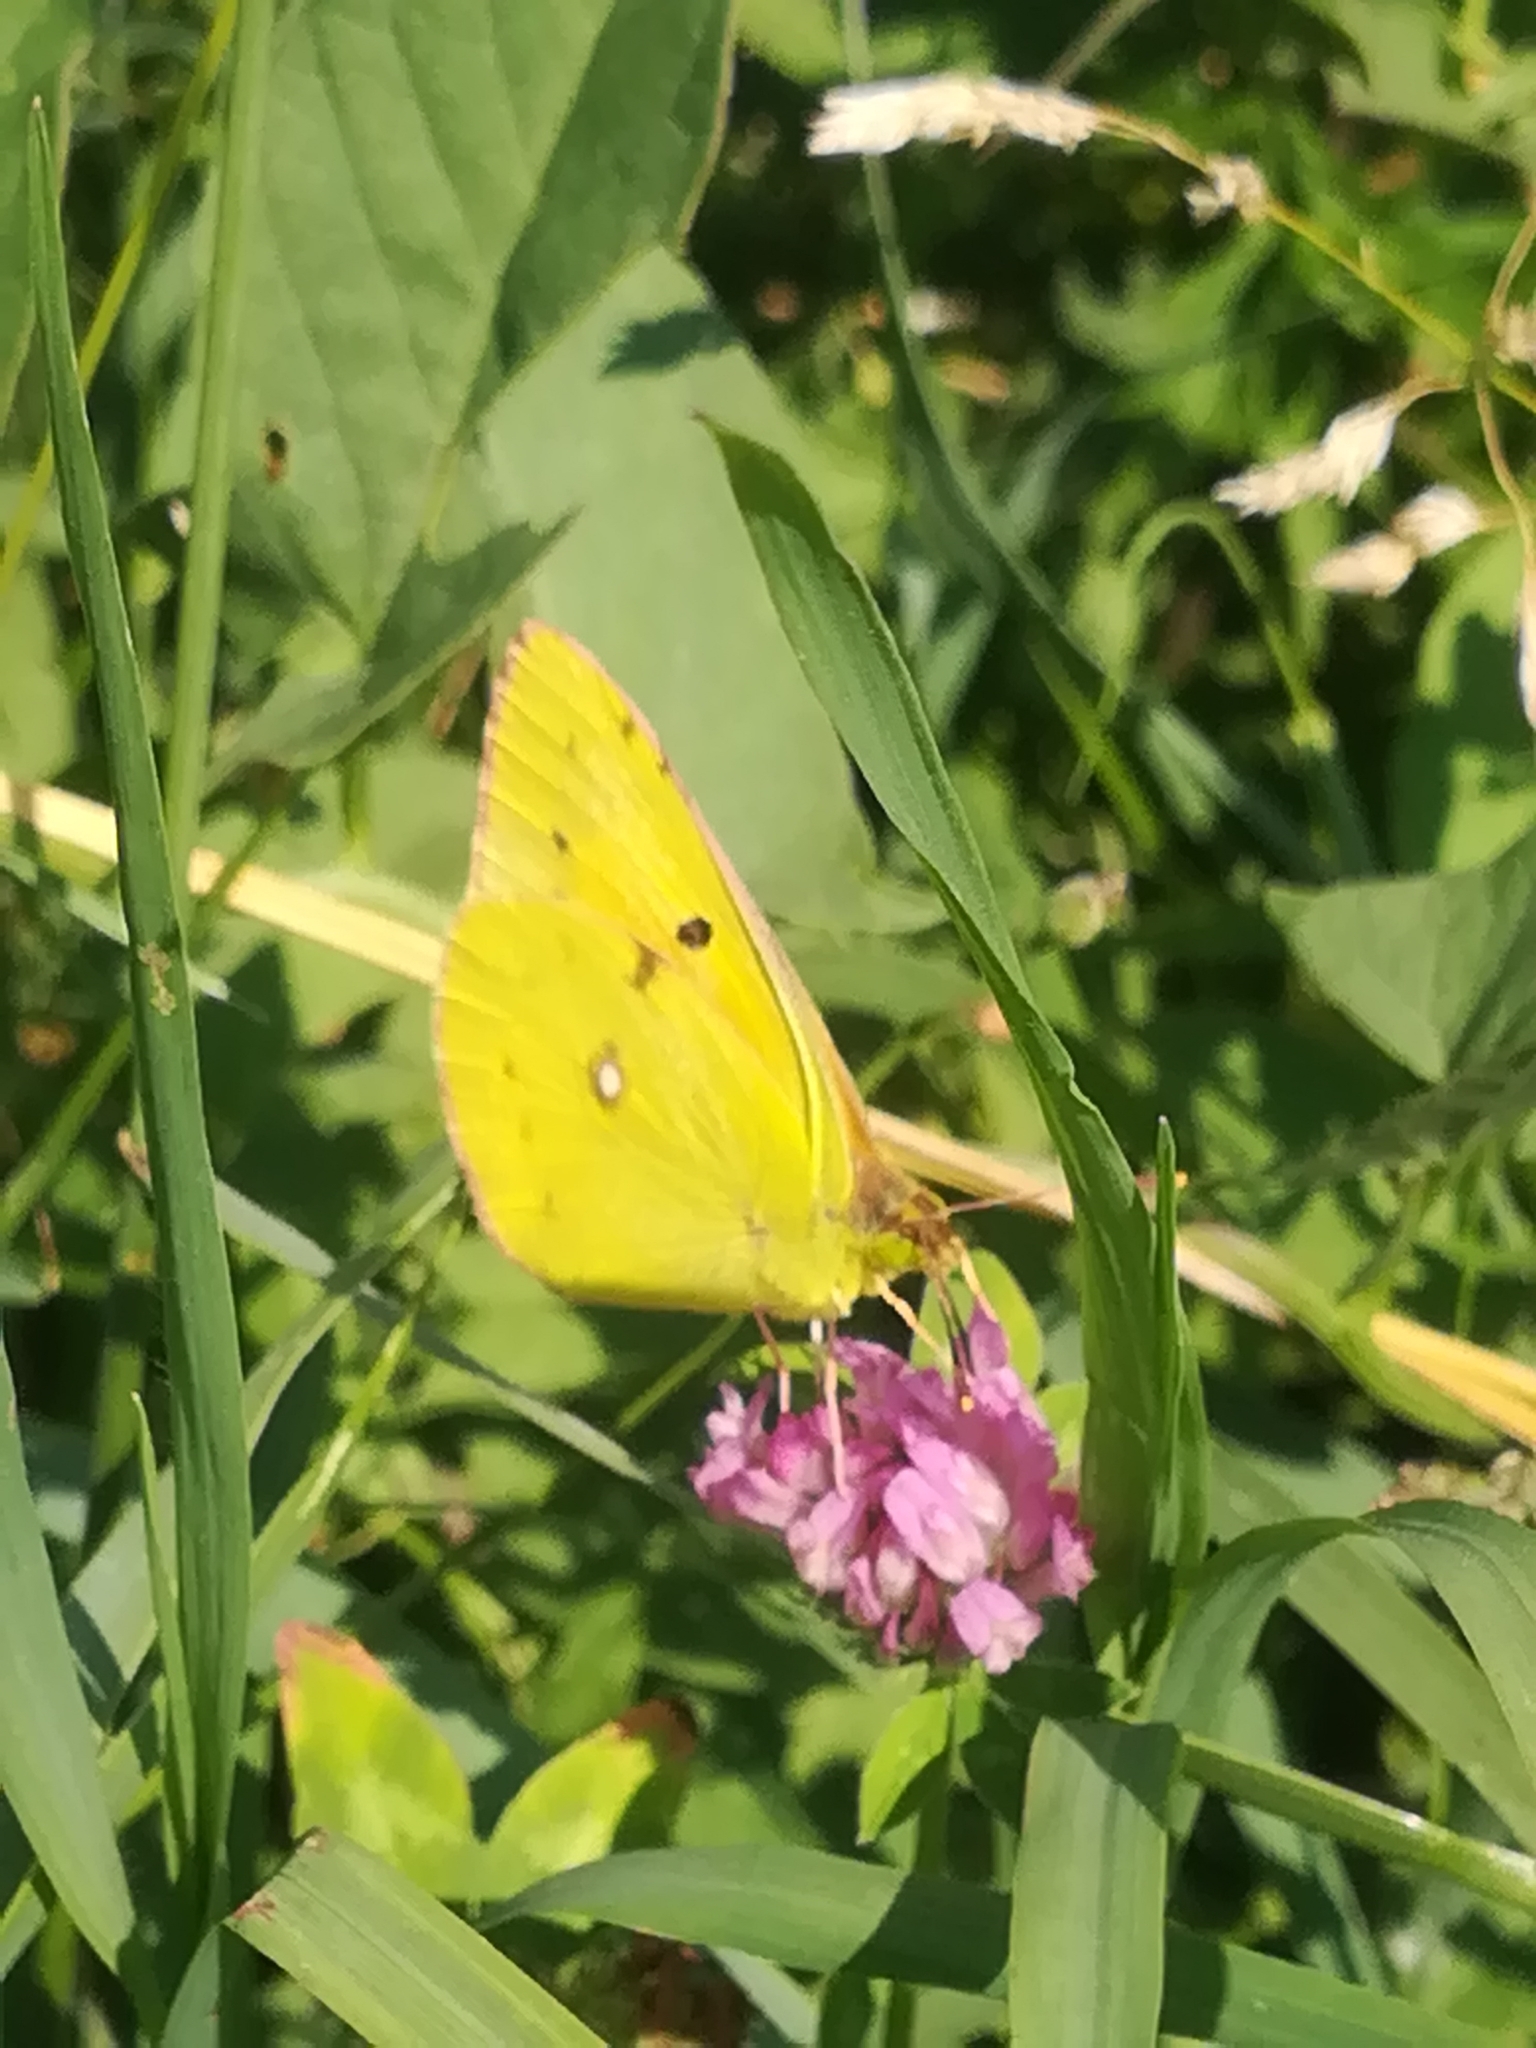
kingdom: Animalia
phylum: Arthropoda
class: Insecta
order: Lepidoptera
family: Pieridae
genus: Colias
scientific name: Colias croceus
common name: Clouded yellow
